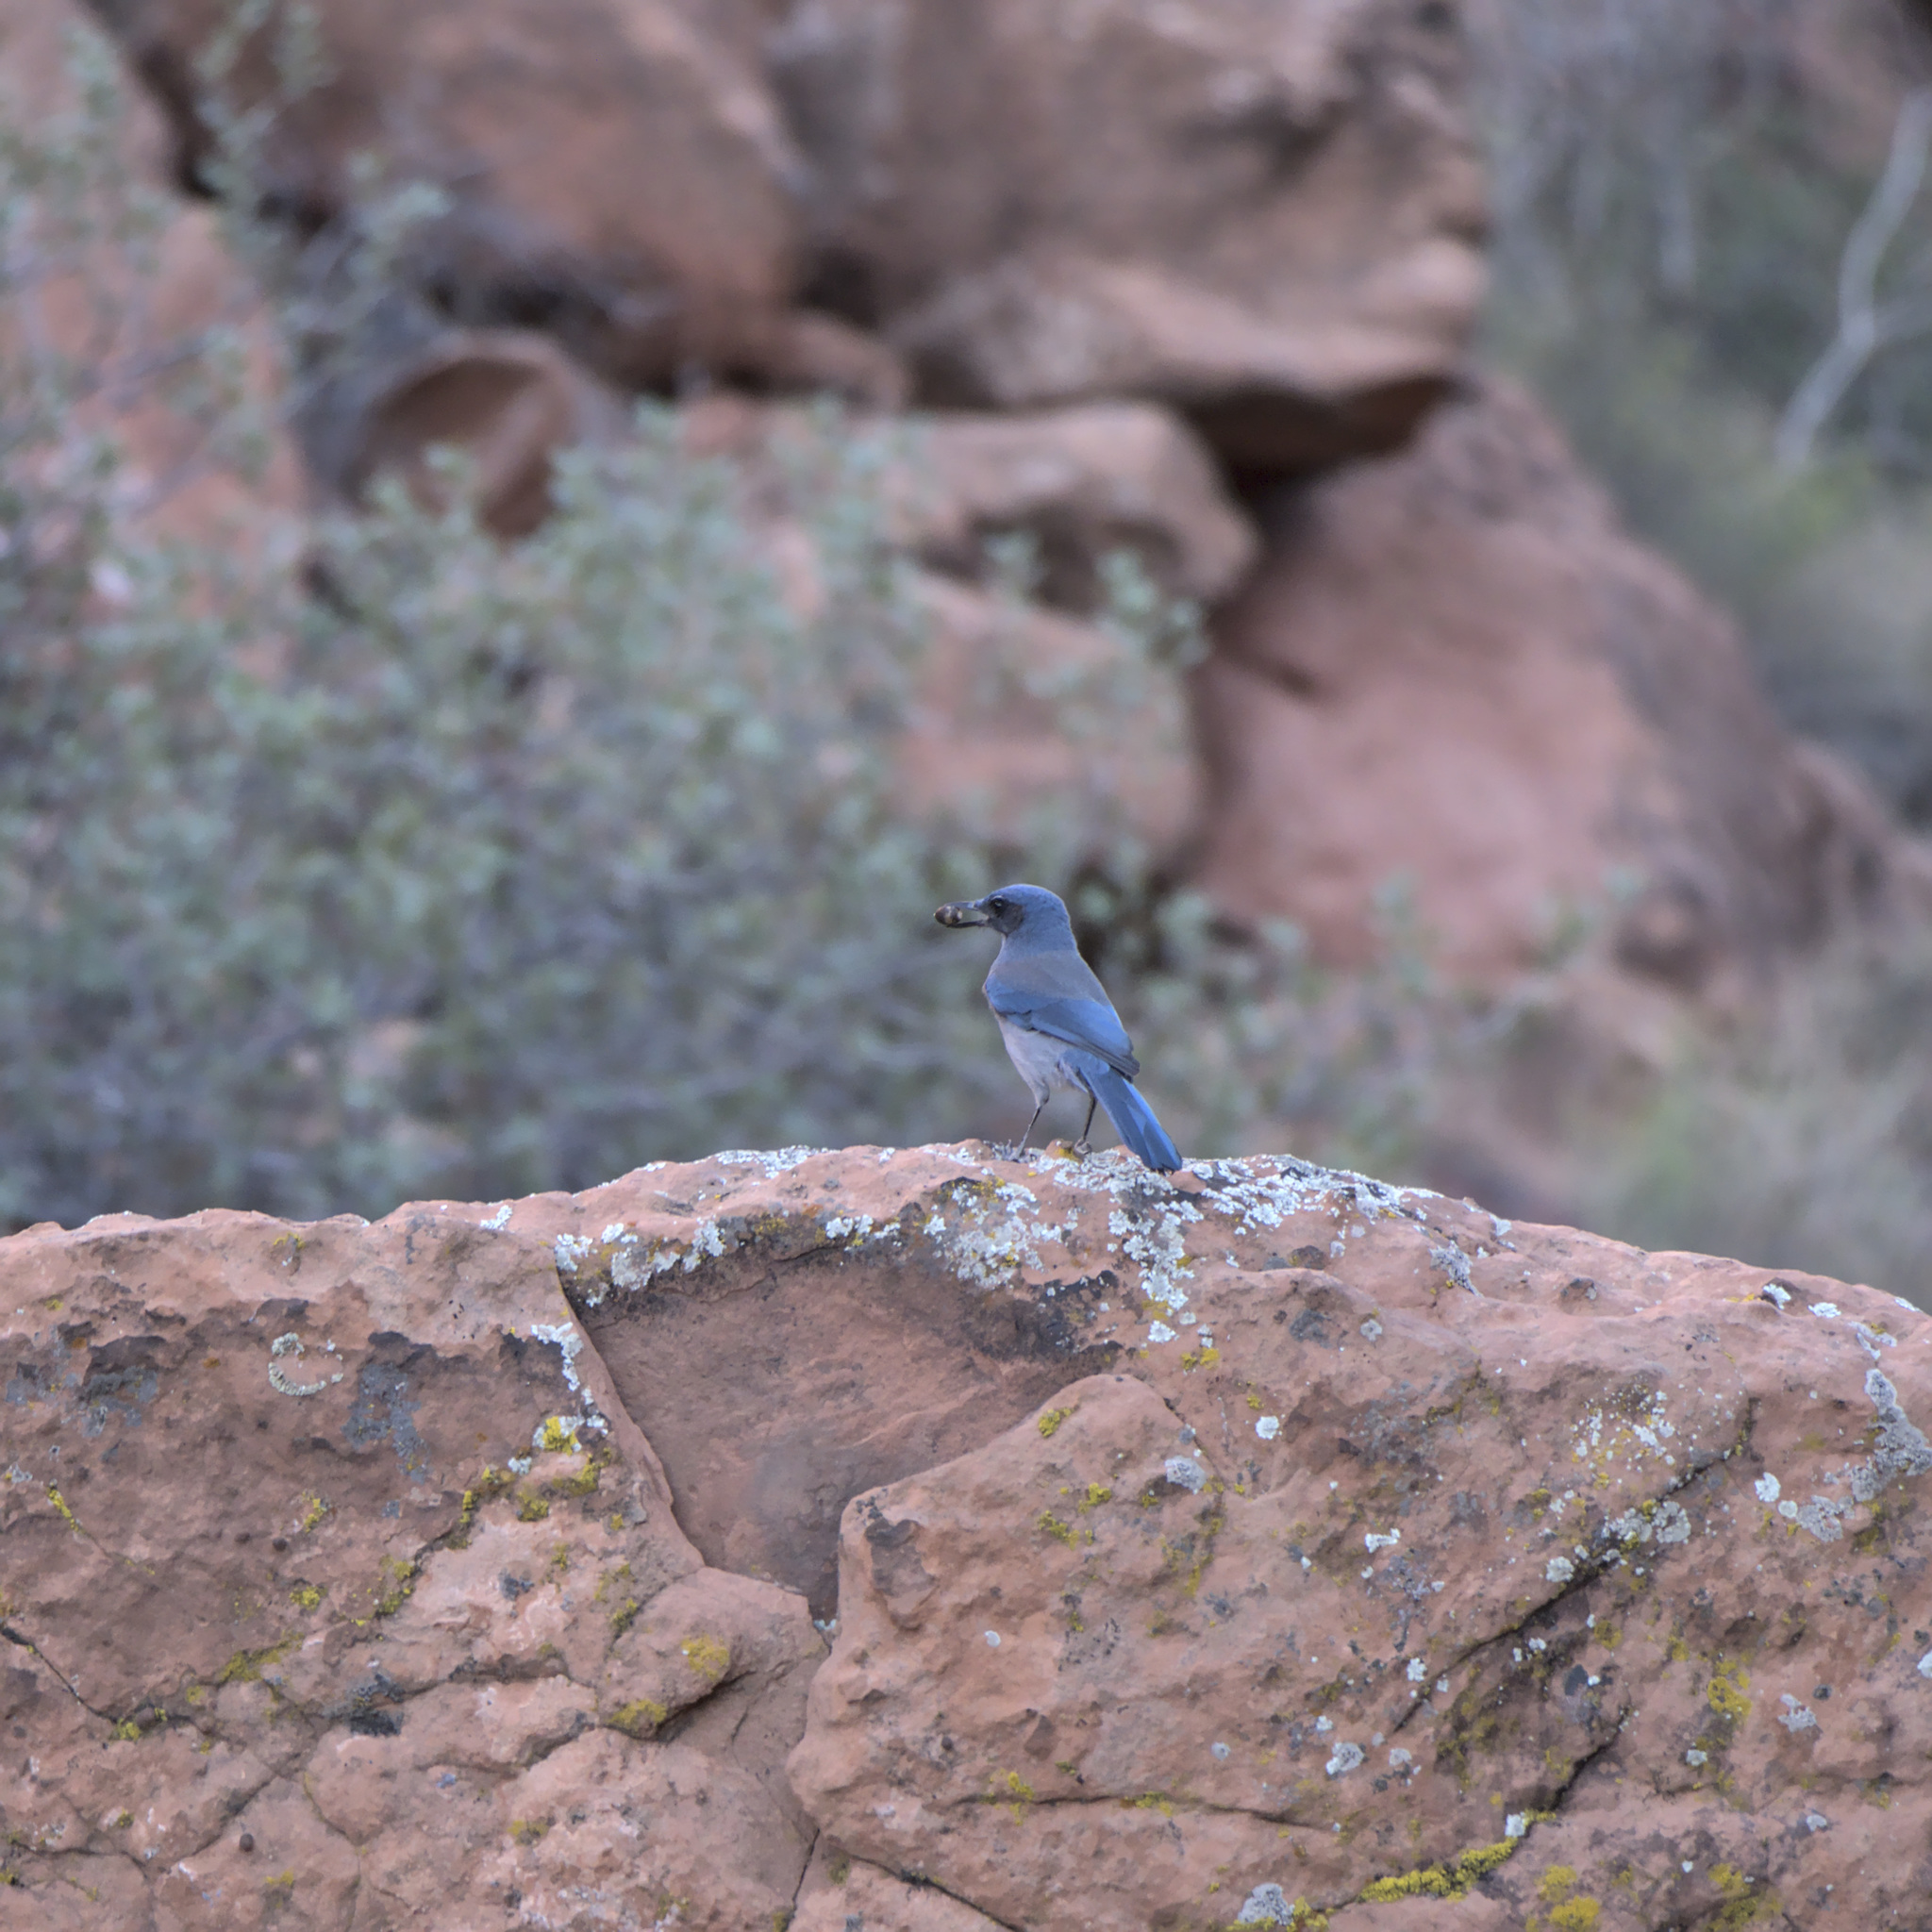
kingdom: Animalia
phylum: Chordata
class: Aves
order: Passeriformes
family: Corvidae
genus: Aphelocoma
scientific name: Aphelocoma woodhouseii
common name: Woodhouse's scrub-jay
